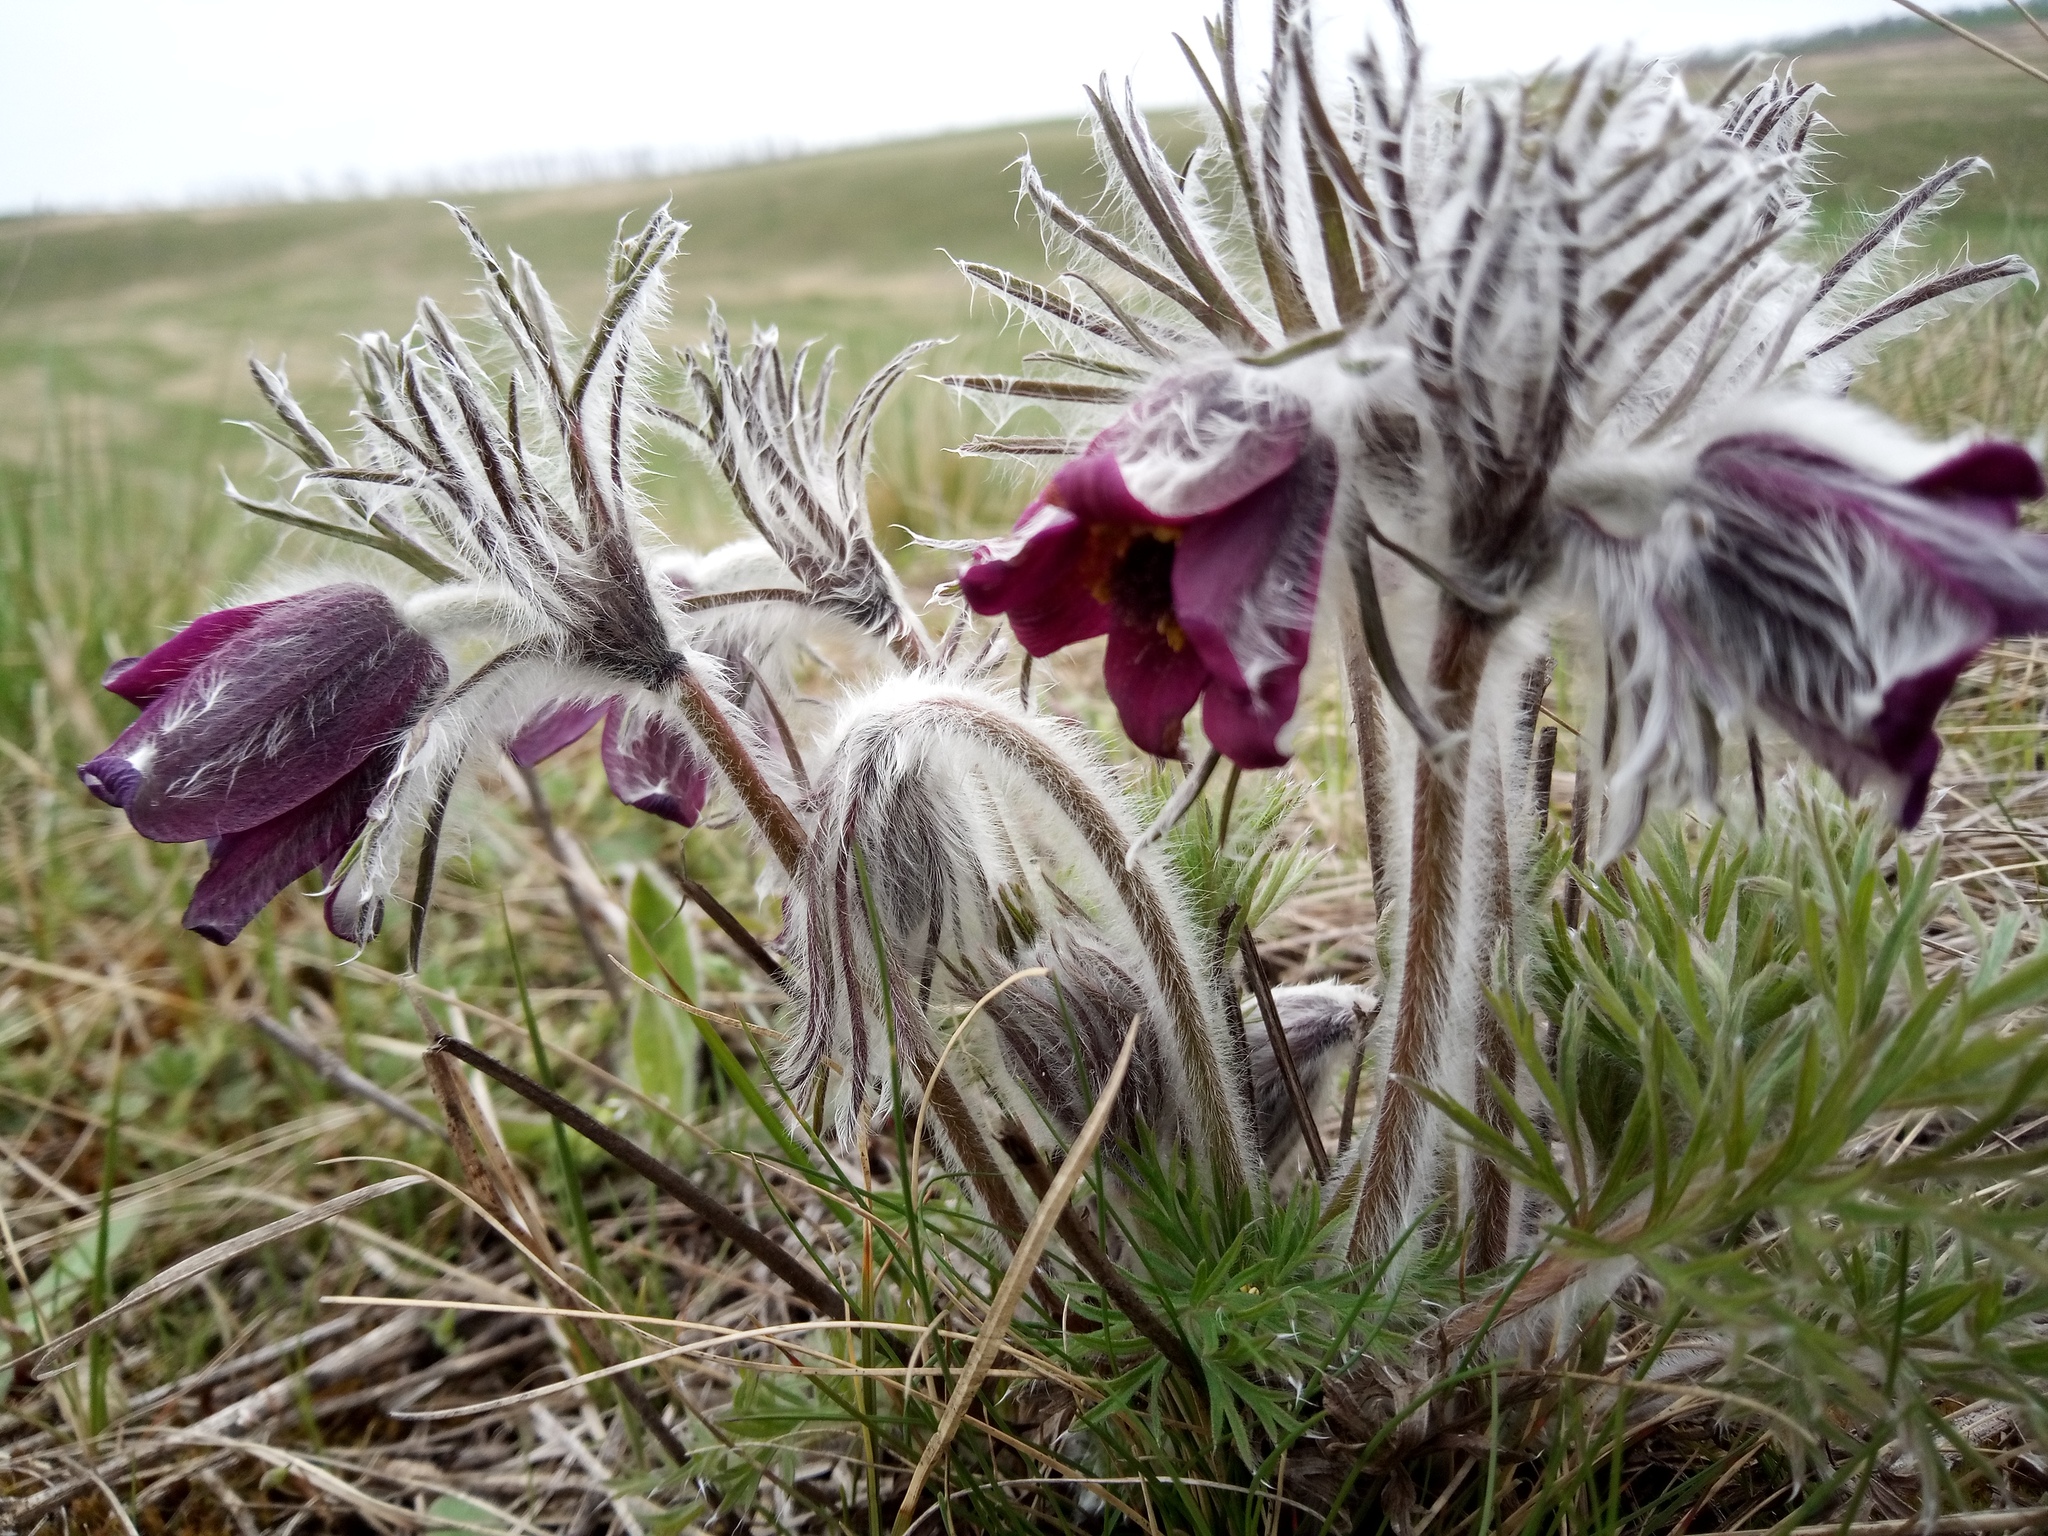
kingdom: Plantae
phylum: Tracheophyta
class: Magnoliopsida
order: Ranunculales
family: Ranunculaceae
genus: Pulsatilla
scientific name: Pulsatilla pratensis
